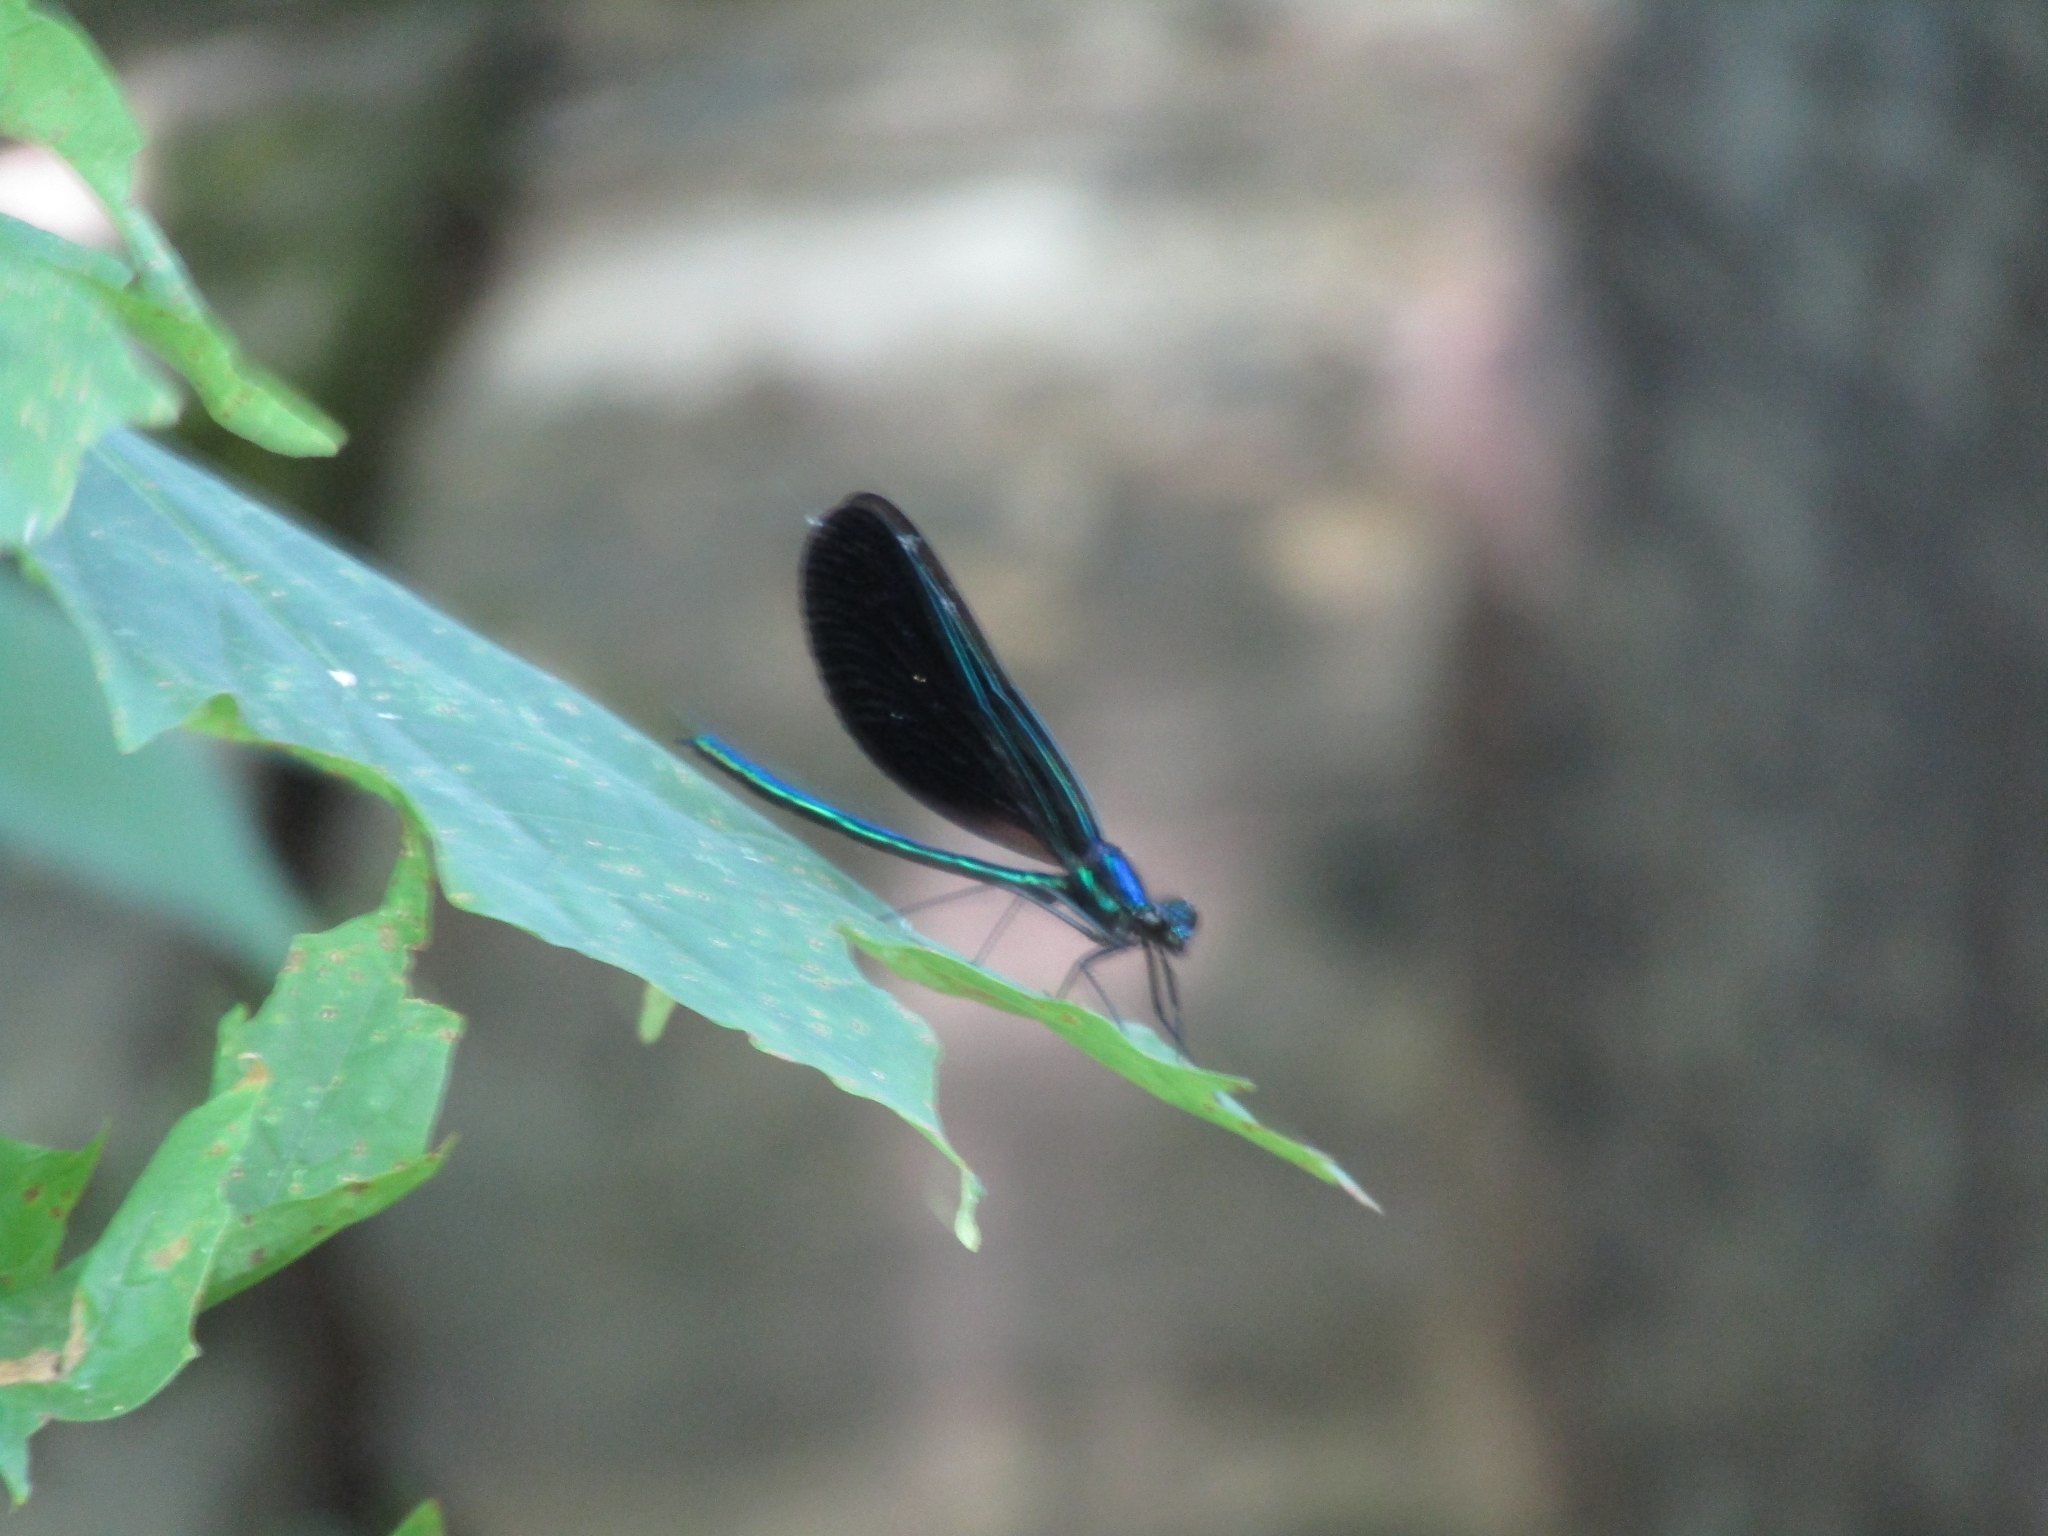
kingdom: Animalia
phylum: Arthropoda
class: Insecta
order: Odonata
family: Calopterygidae
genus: Calopteryx
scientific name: Calopteryx maculata
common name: Ebony jewelwing
